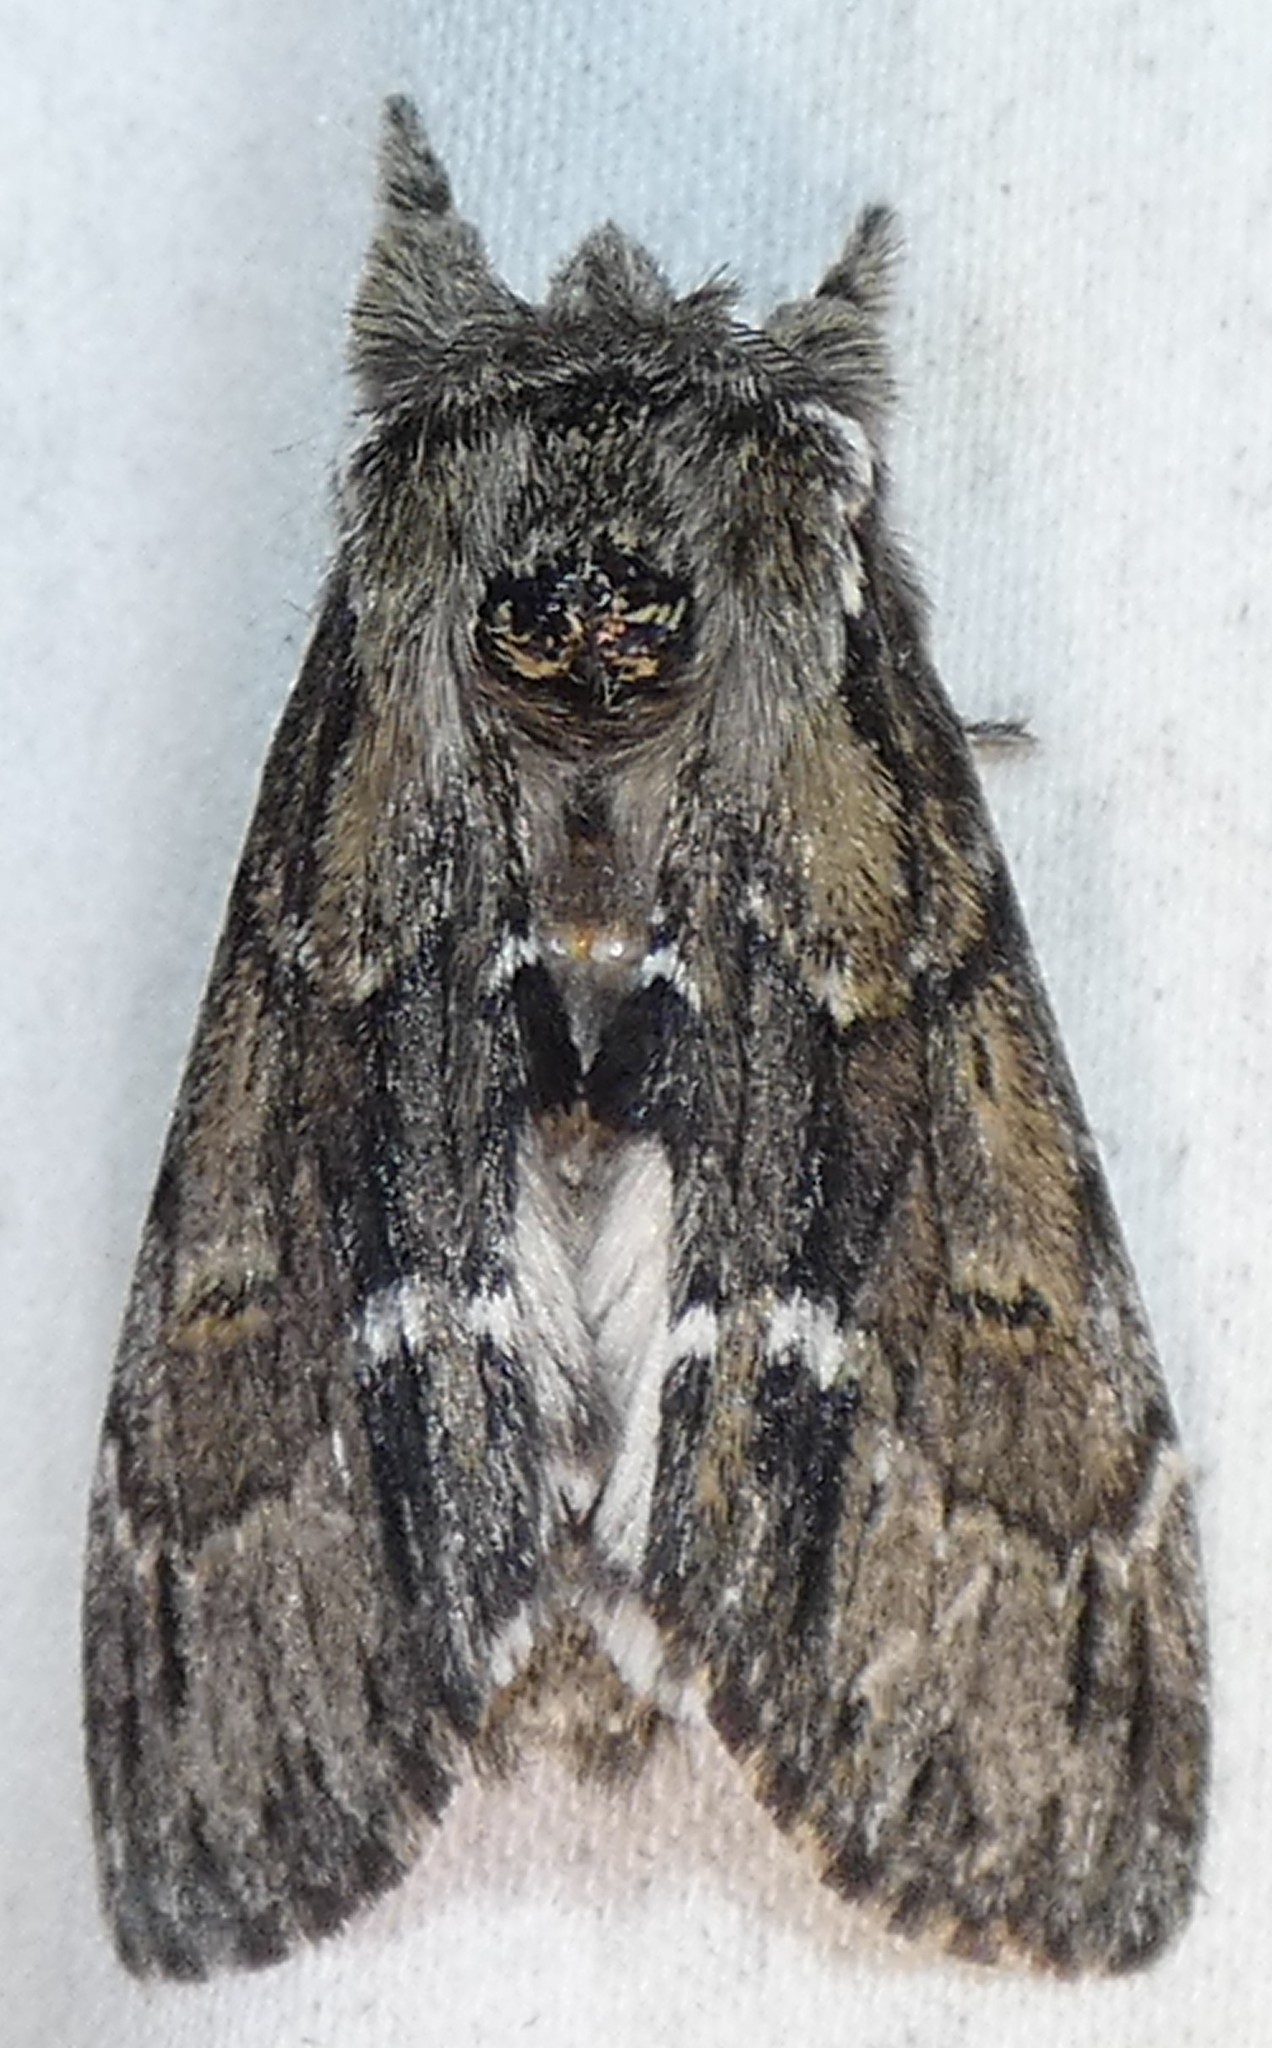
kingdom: Animalia
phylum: Arthropoda
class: Insecta
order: Lepidoptera
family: Notodontidae
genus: Paraeschra
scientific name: Paraeschra georgica
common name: Georgian prominent
